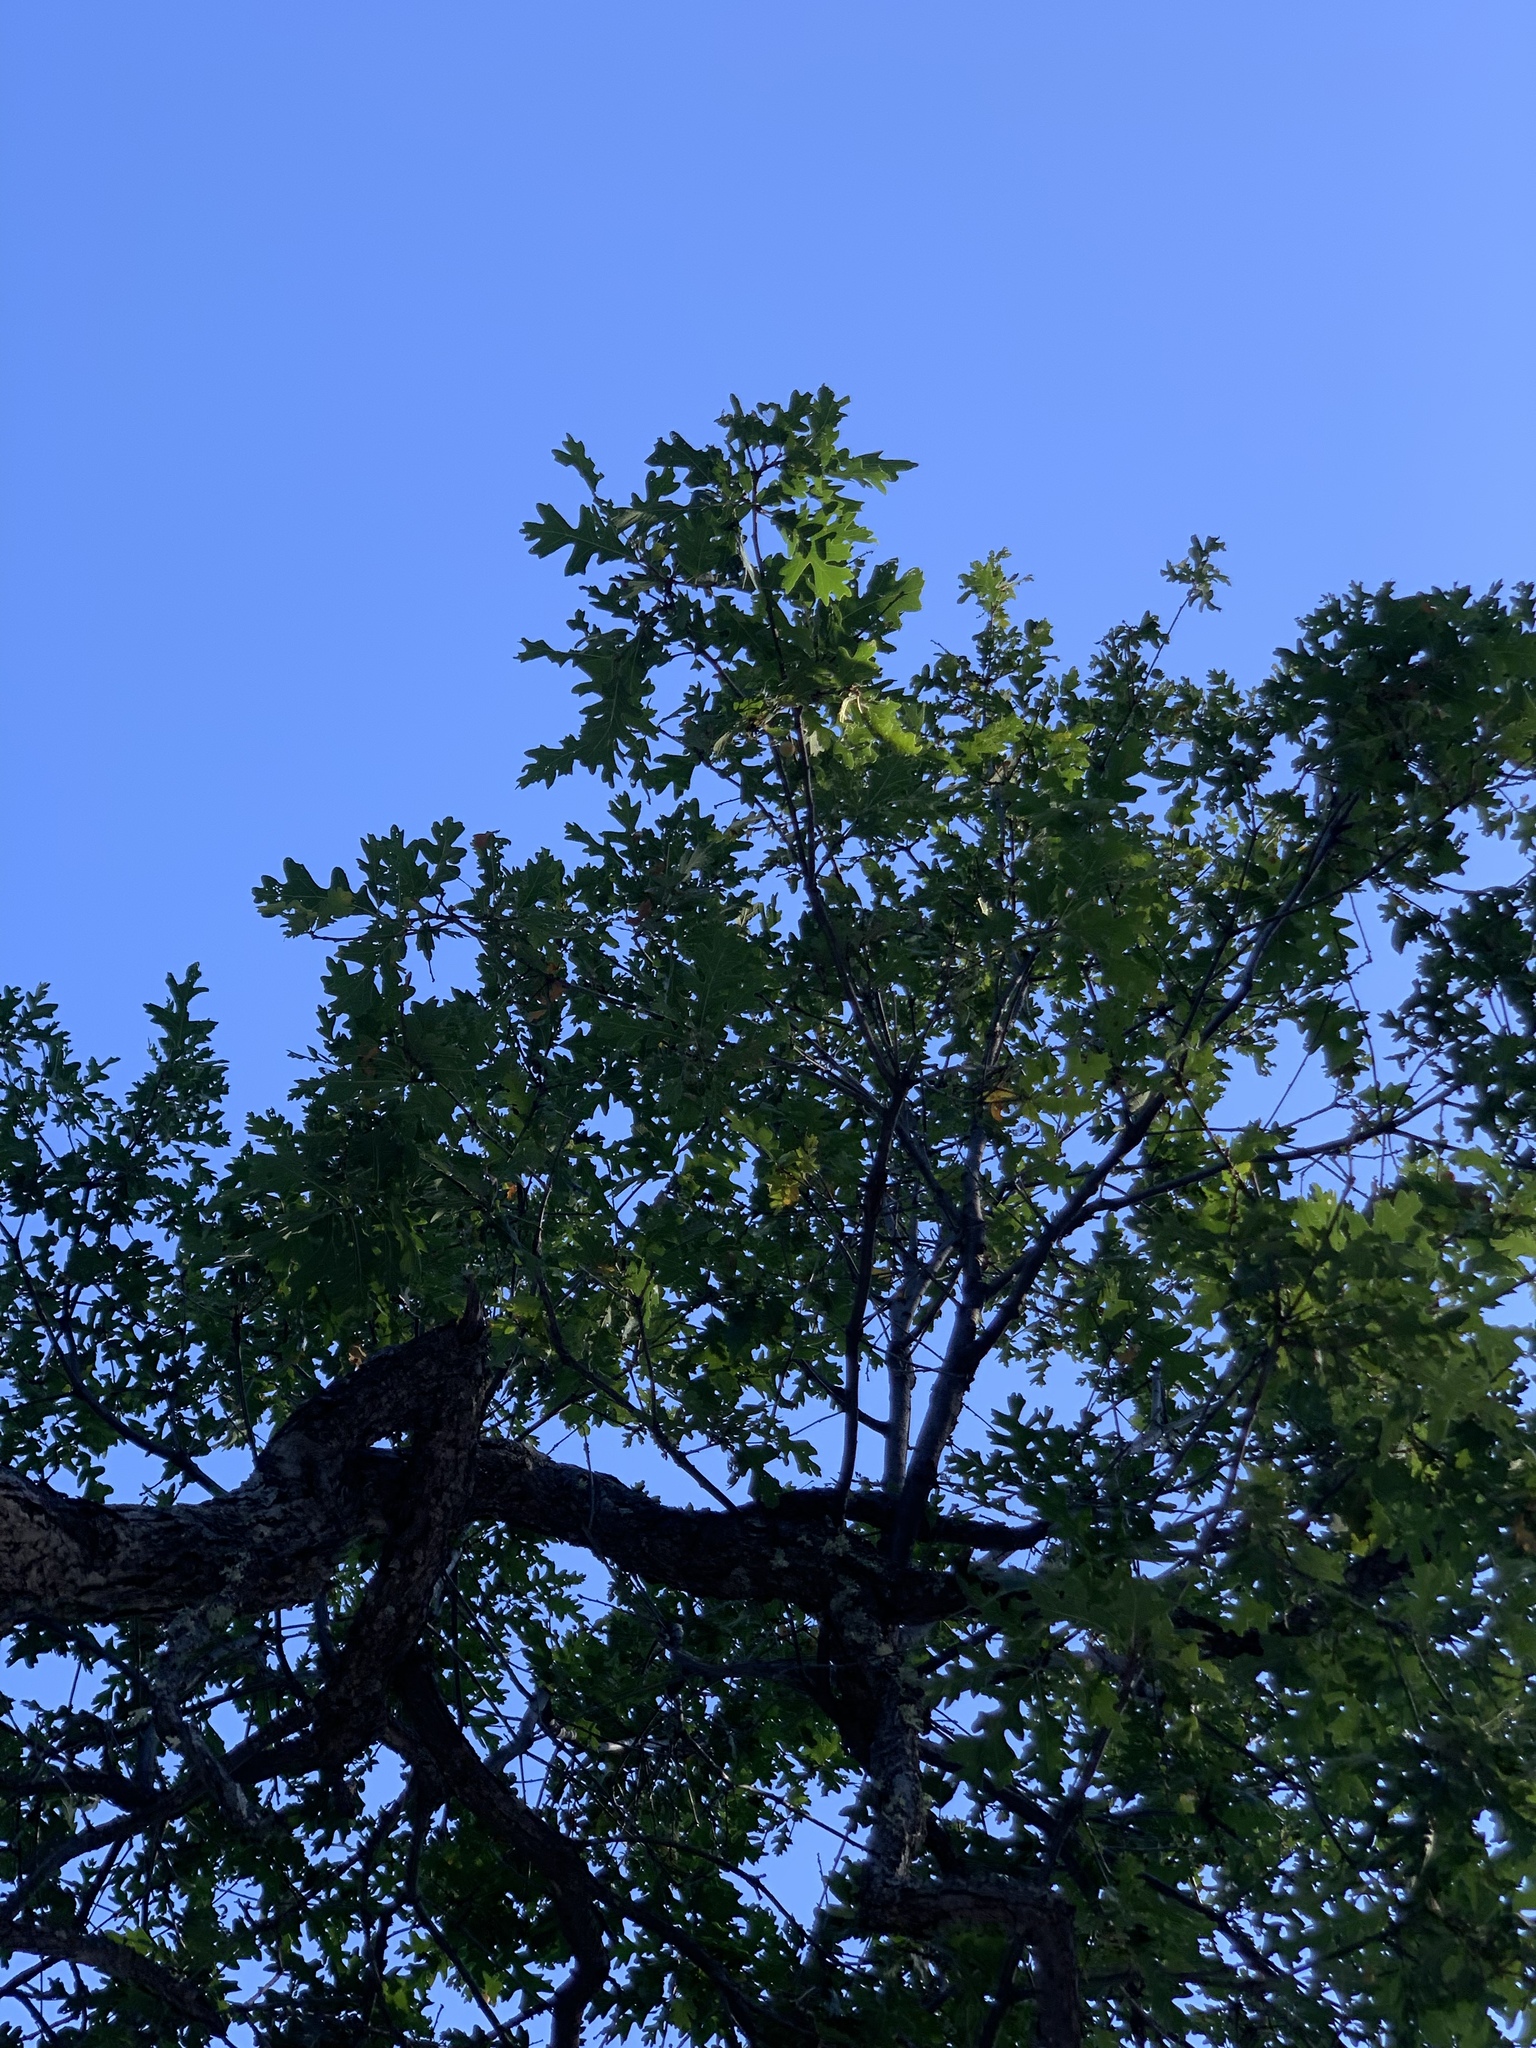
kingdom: Plantae
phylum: Tracheophyta
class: Magnoliopsida
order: Fagales
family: Fagaceae
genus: Quercus
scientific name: Quercus gambelii
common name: Gambel oak
